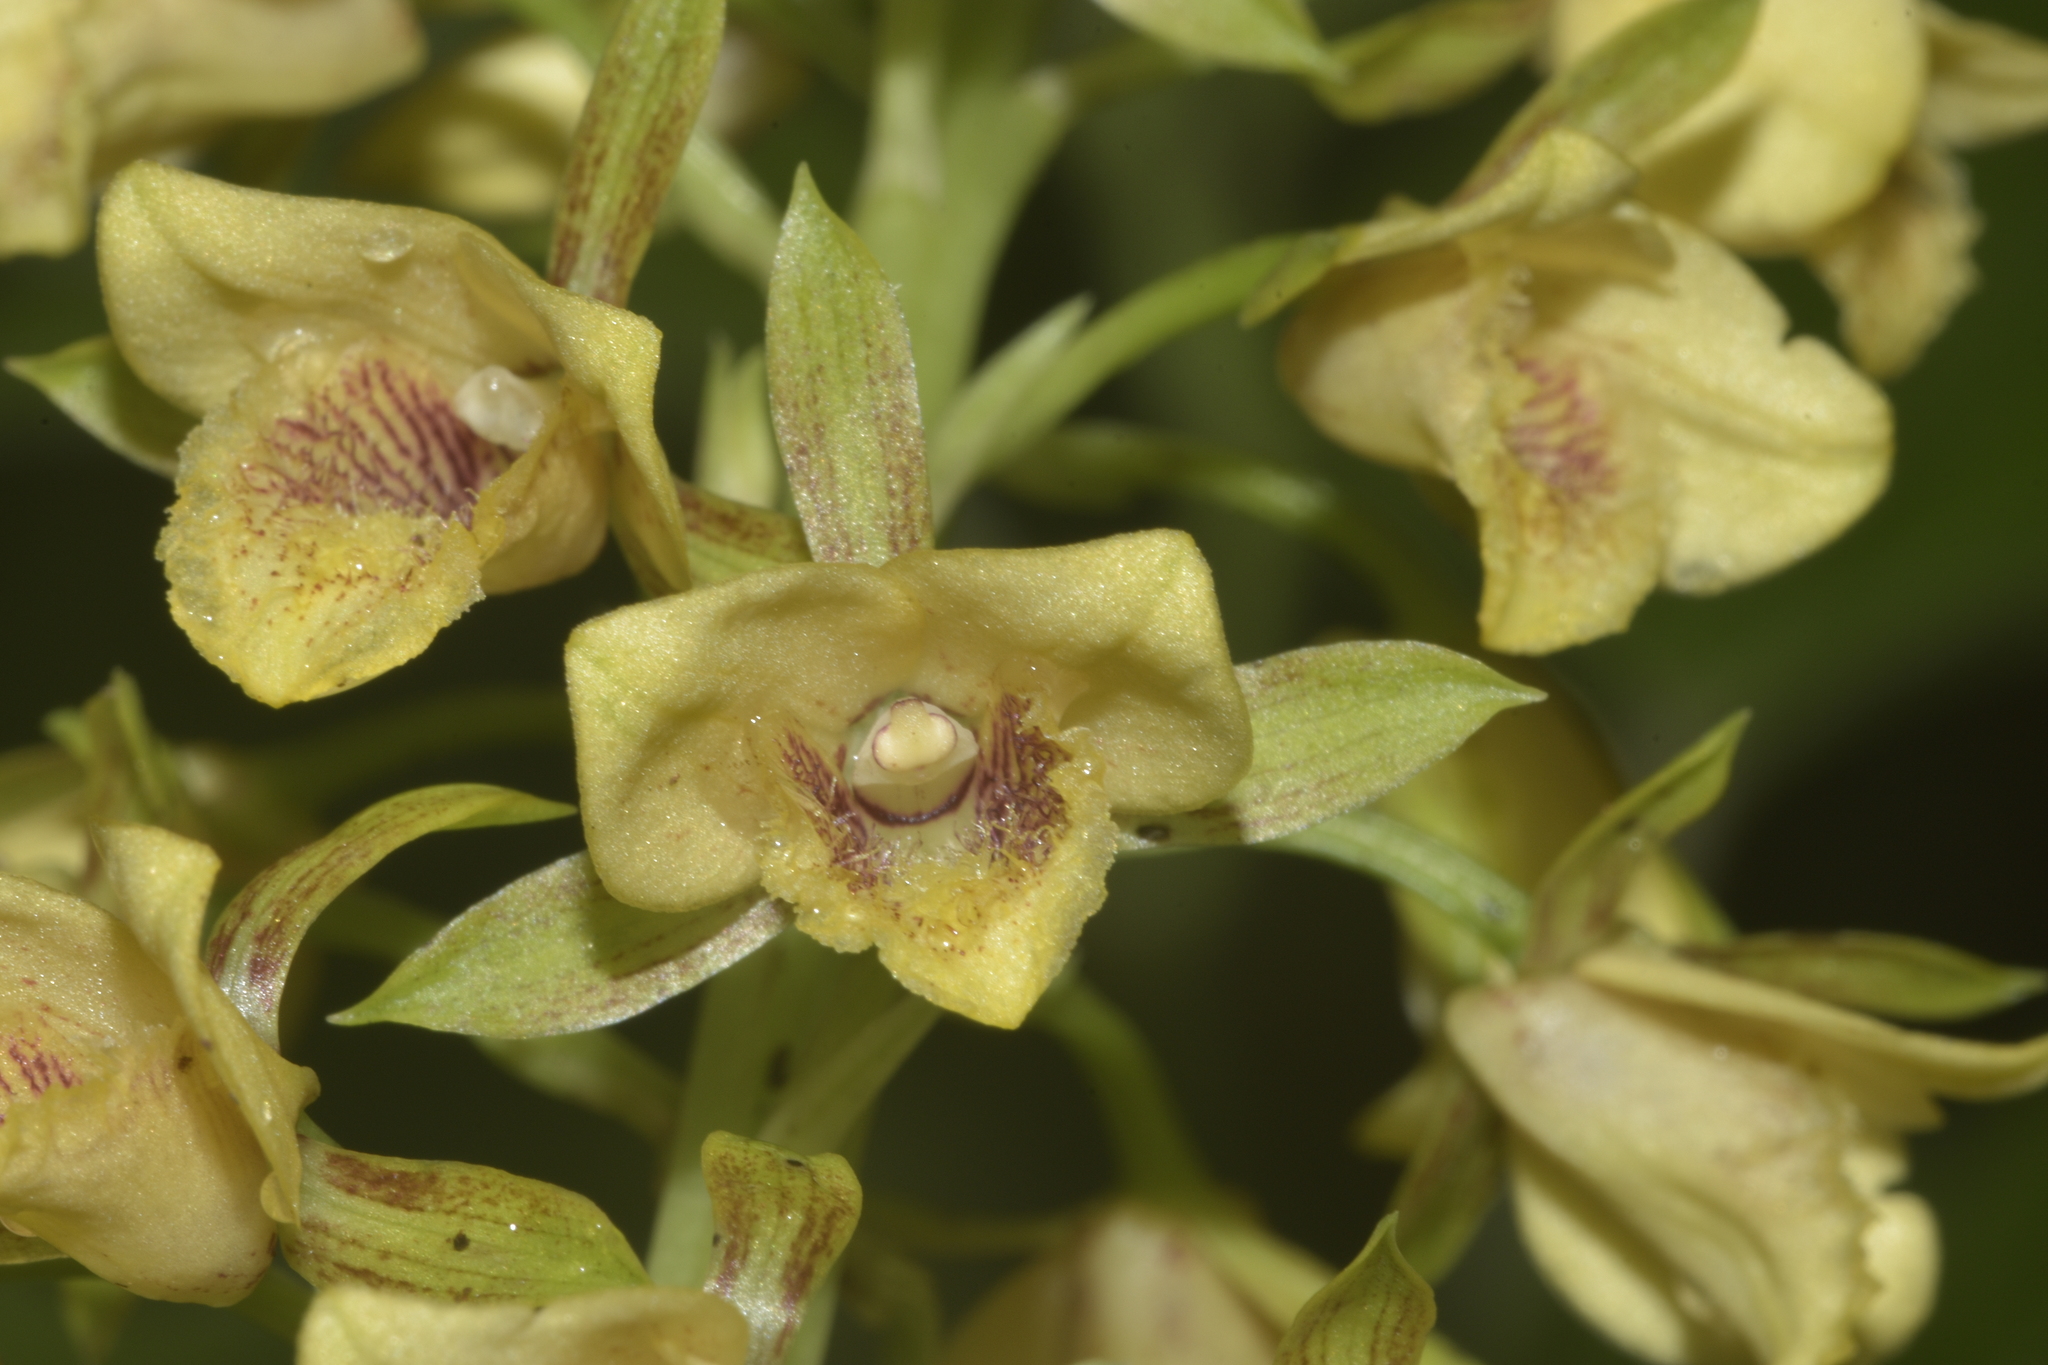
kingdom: Plantae
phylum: Tracheophyta
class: Liliopsida
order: Asparagales
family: Orchidaceae
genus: Eulophia
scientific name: Eulophia ochreata
